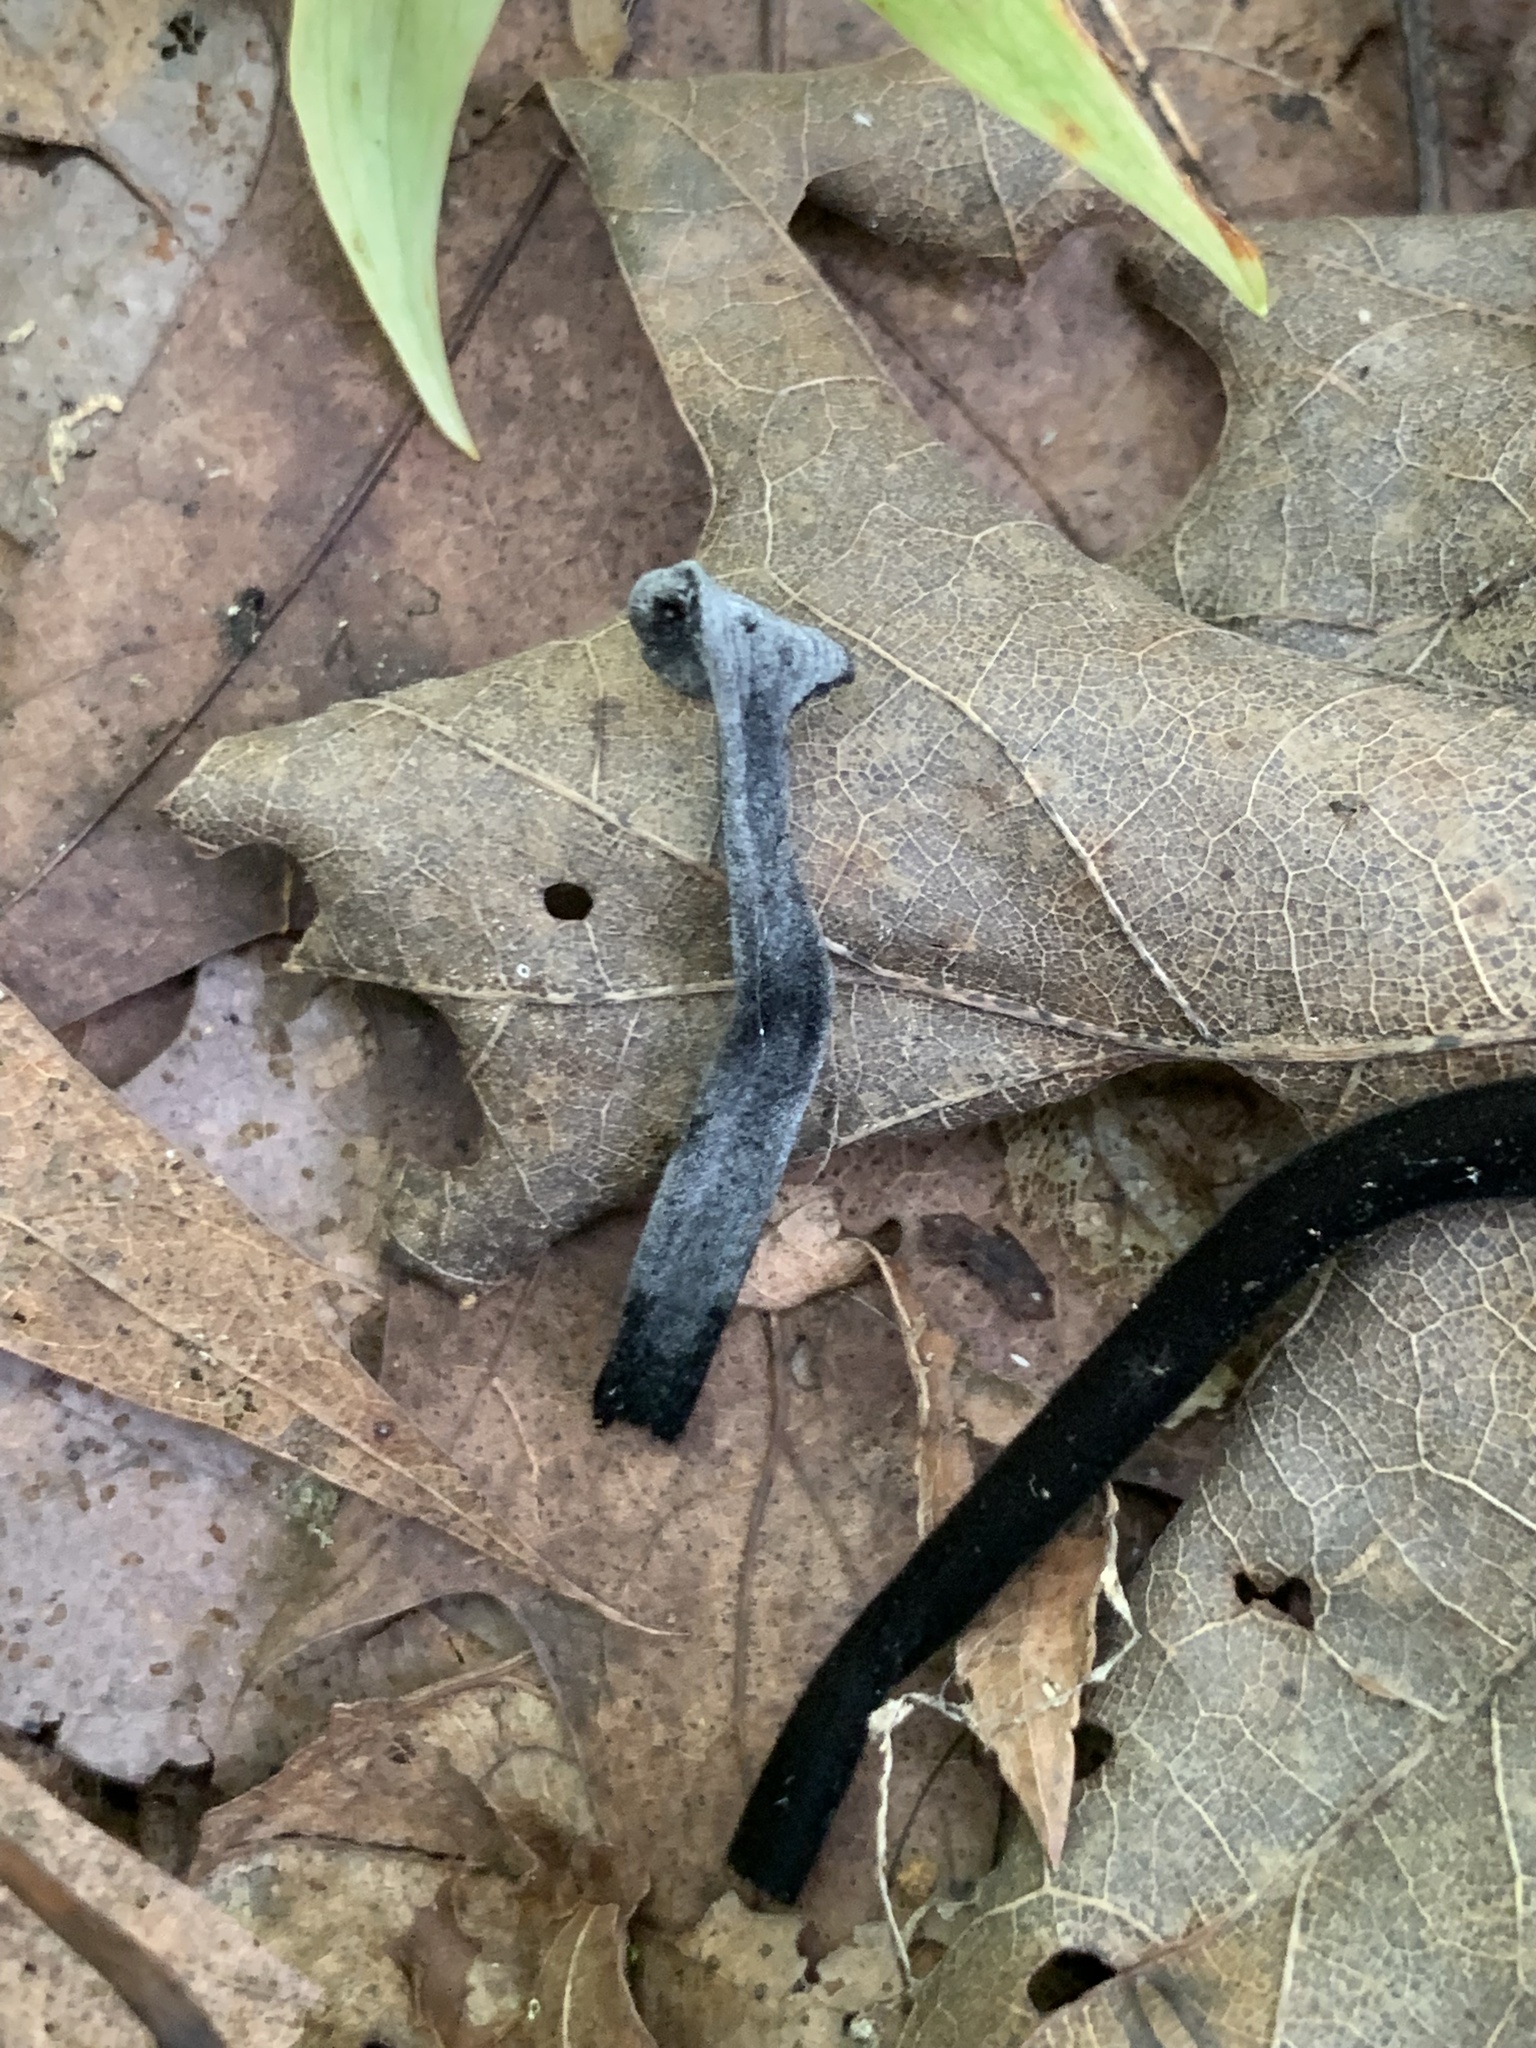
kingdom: Fungi
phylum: Ascomycota
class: Sordariomycetes
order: Hypocreales
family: Hypocreaceae
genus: Hypomyces
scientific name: Hypomyces papulasporae
